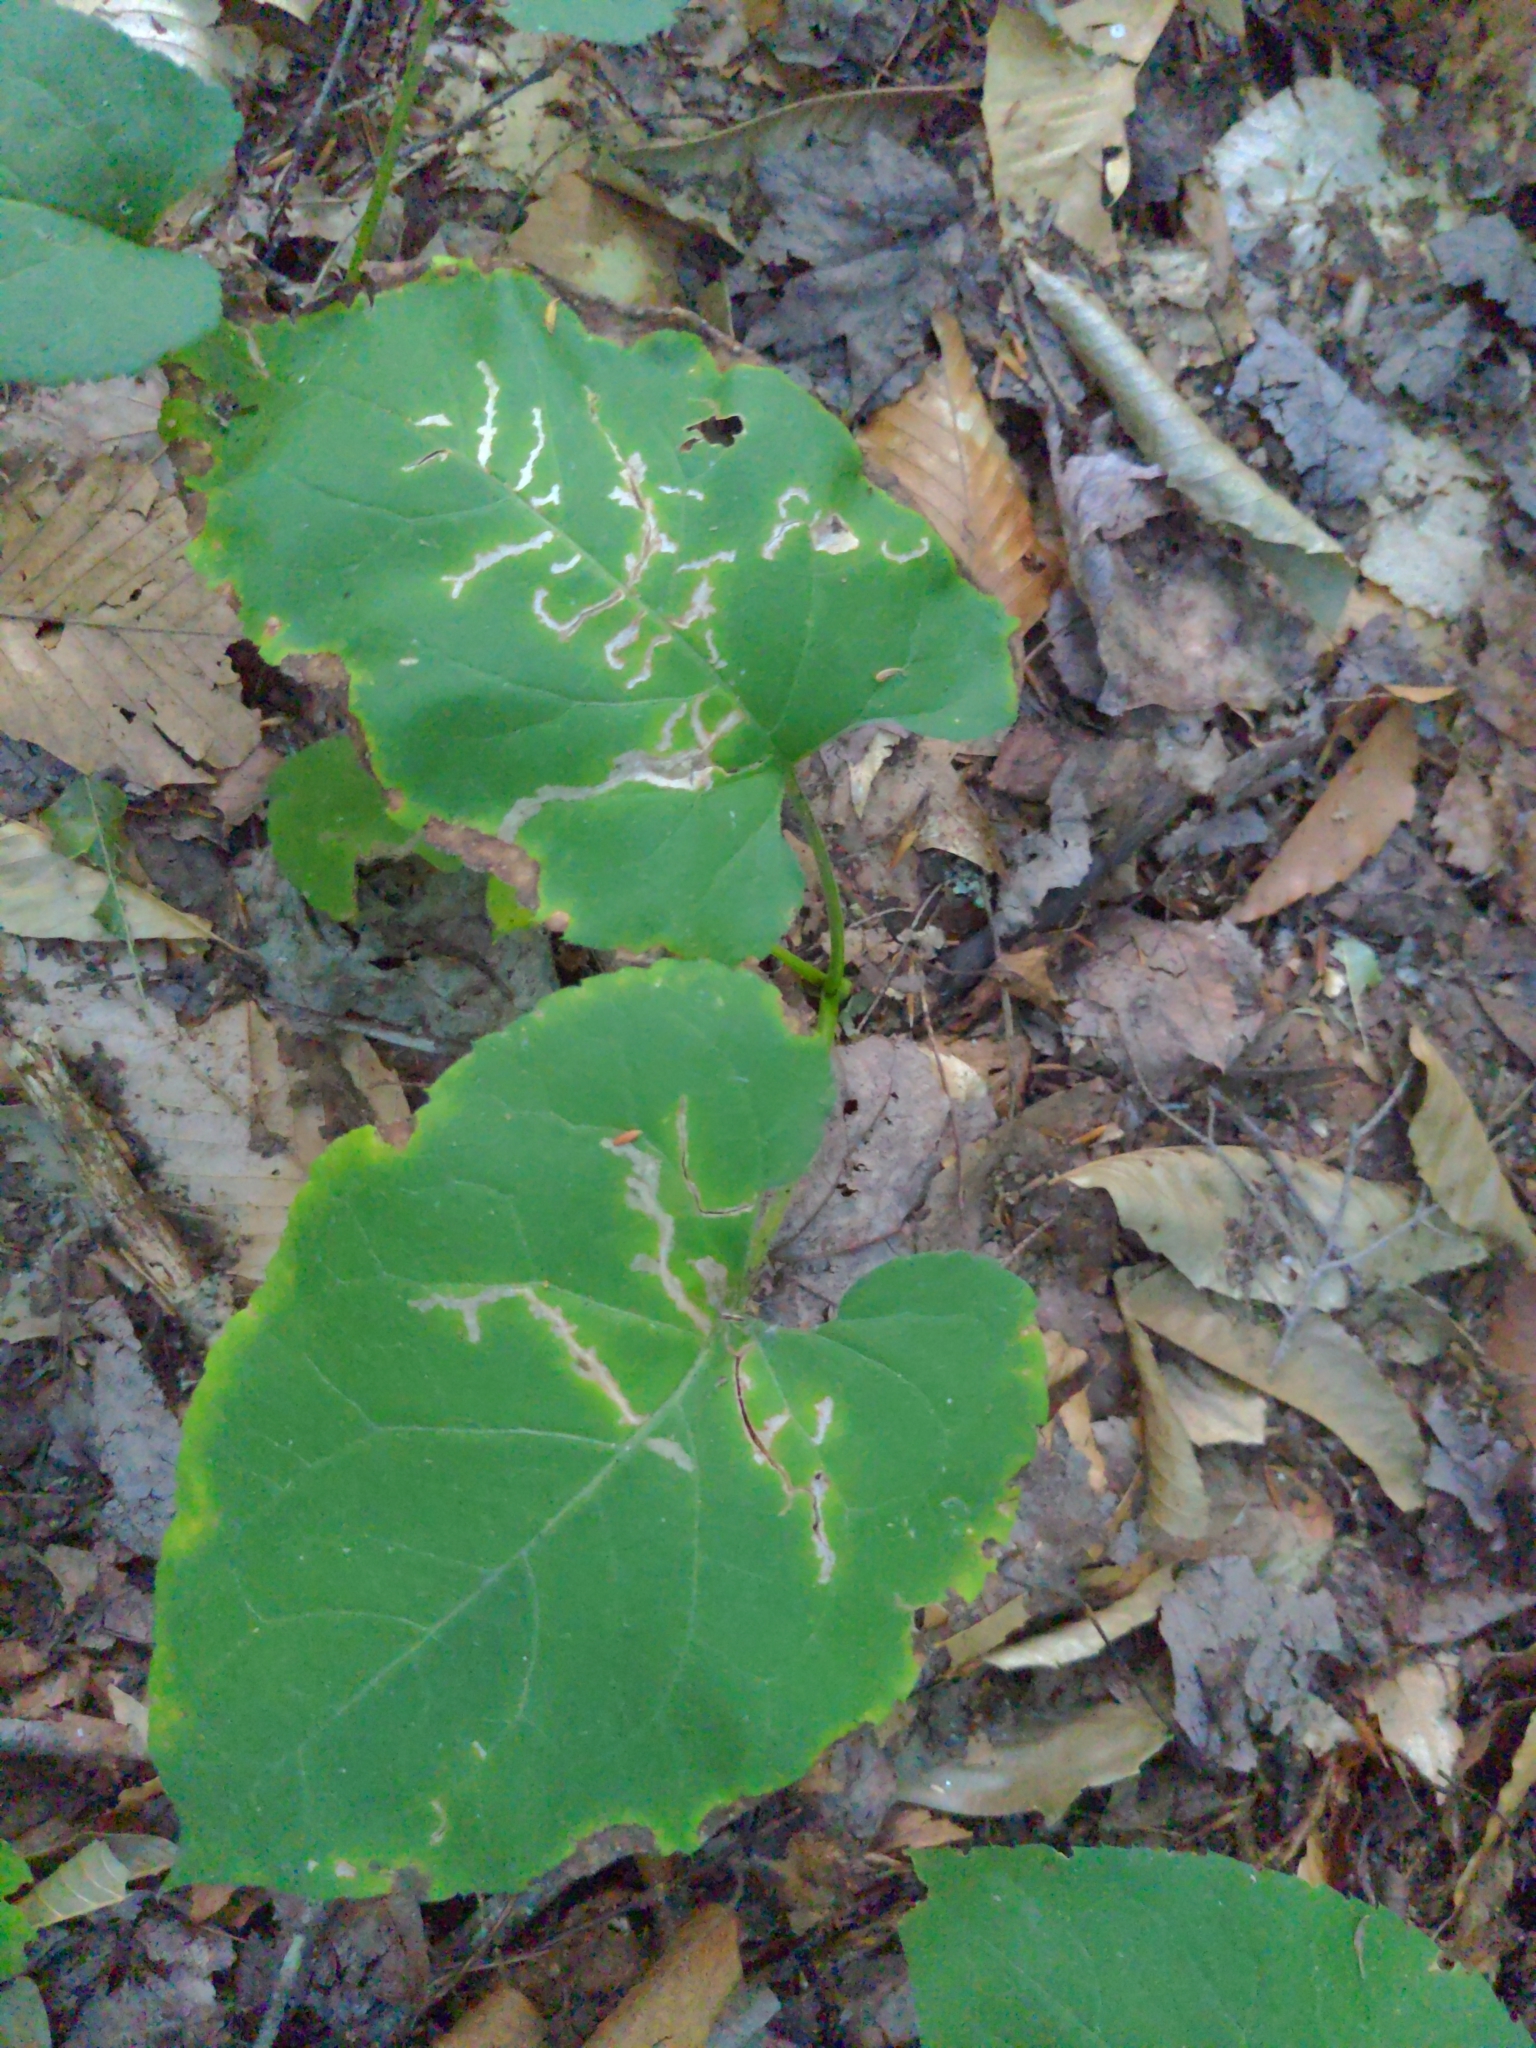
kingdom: Plantae
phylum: Tracheophyta
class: Magnoliopsida
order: Asterales
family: Asteraceae
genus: Eurybia
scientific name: Eurybia macrophylla
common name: Big-leaved aster
